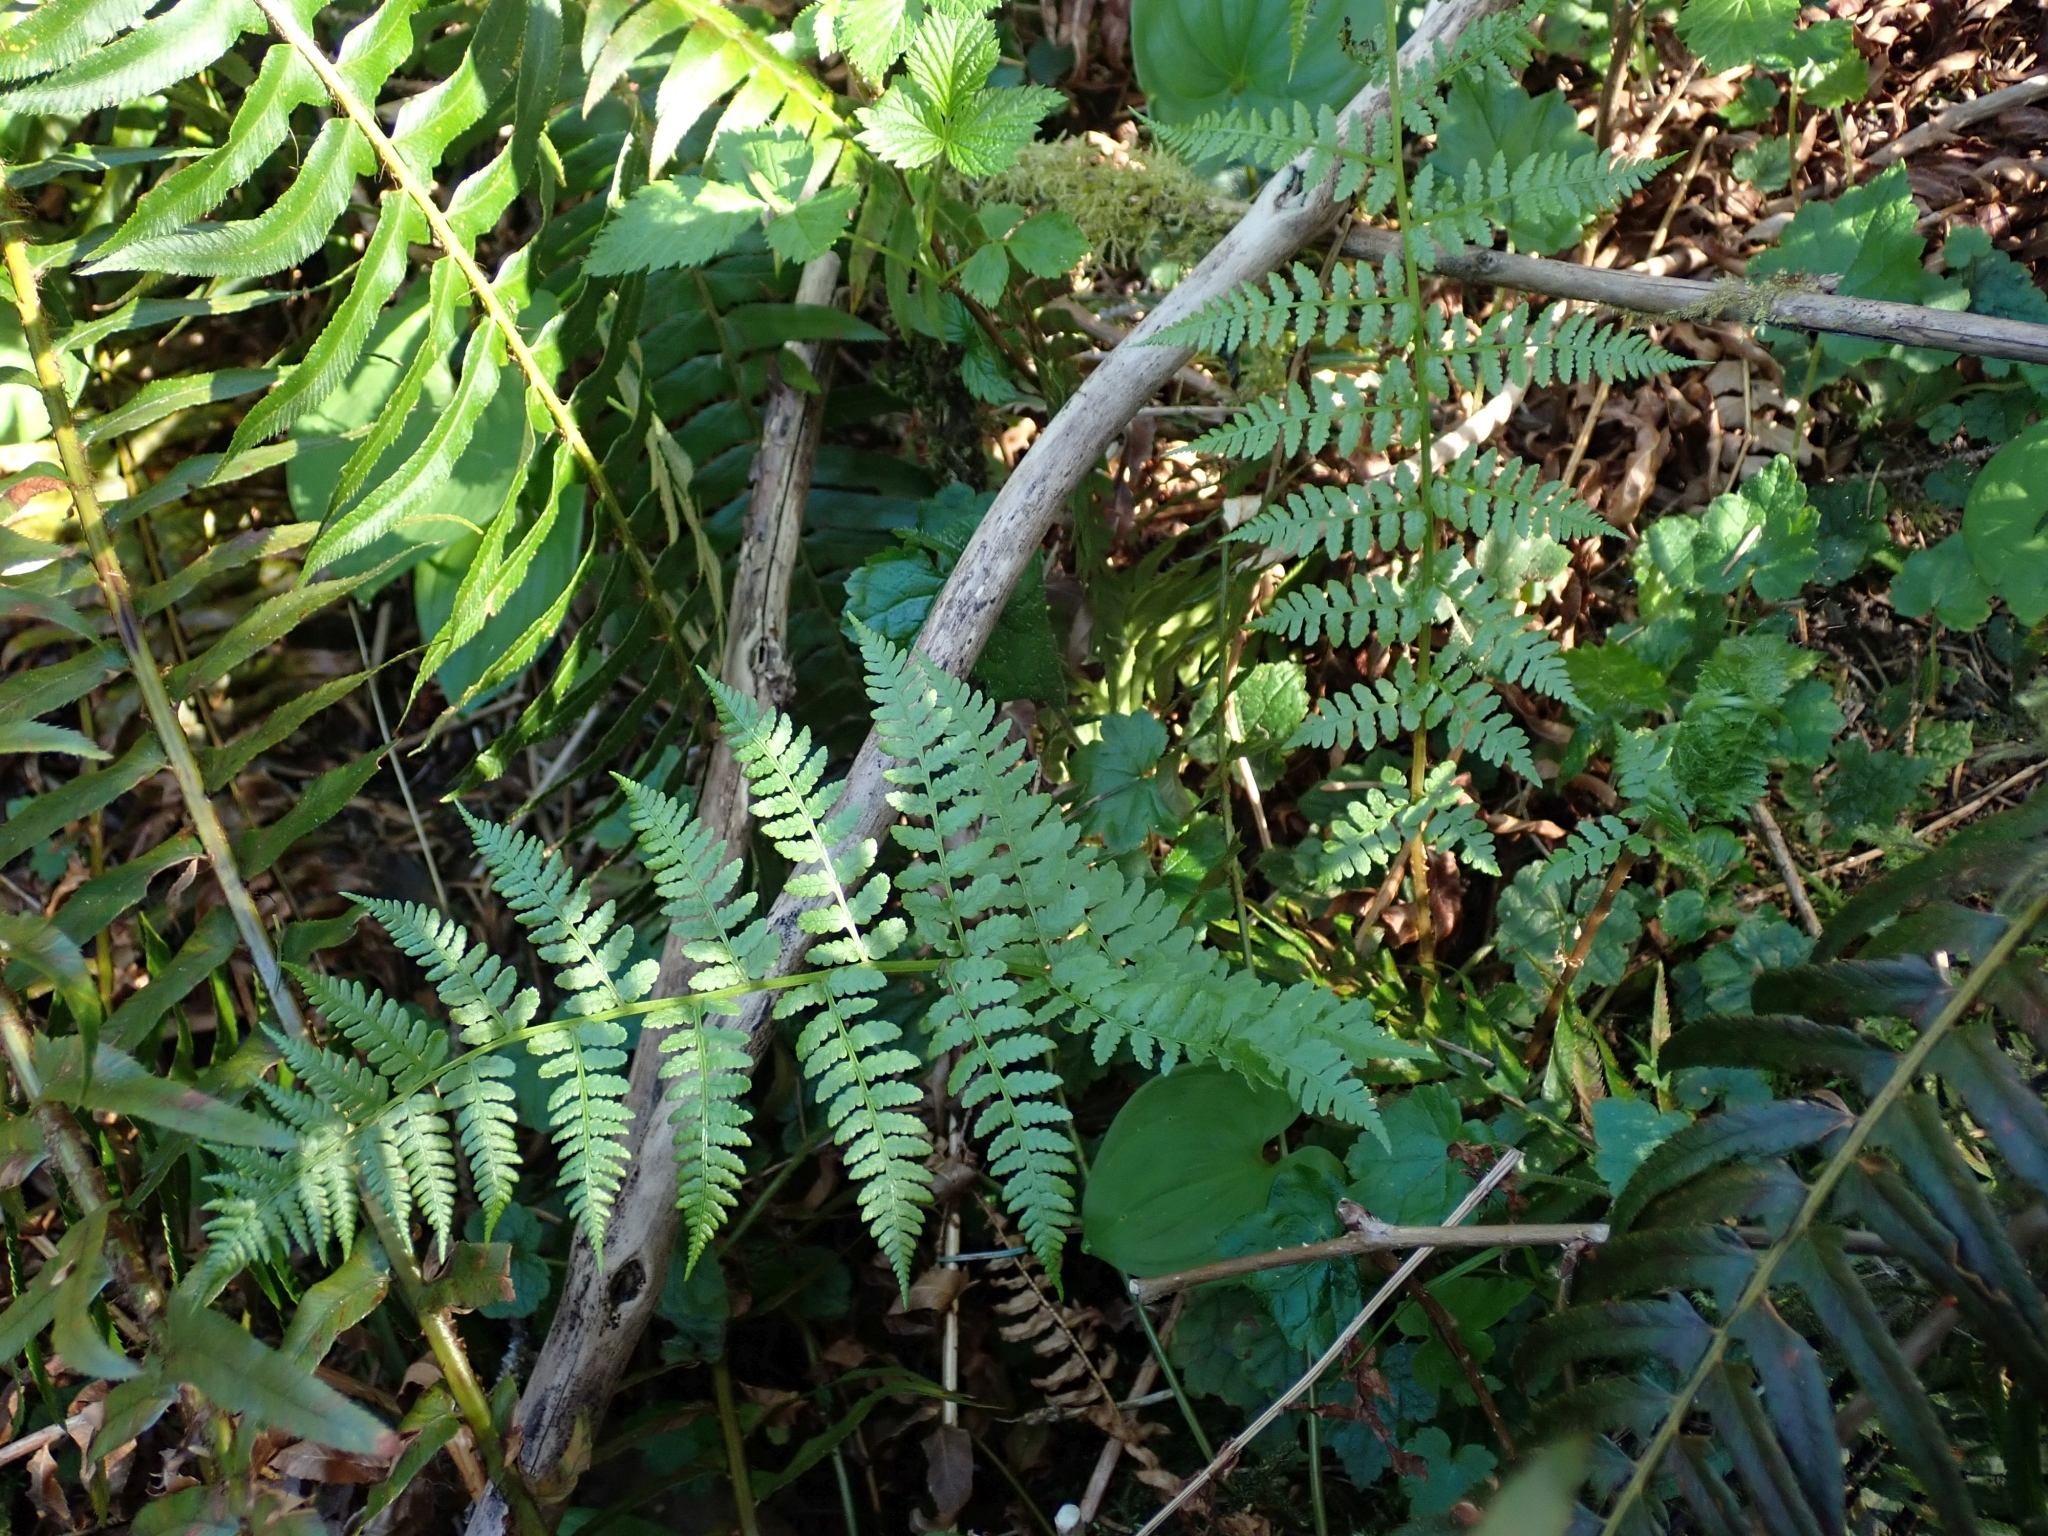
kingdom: Plantae
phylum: Tracheophyta
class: Polypodiopsida
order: Polypodiales
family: Athyriaceae
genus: Athyrium
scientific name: Athyrium filix-femina
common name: Lady fern
